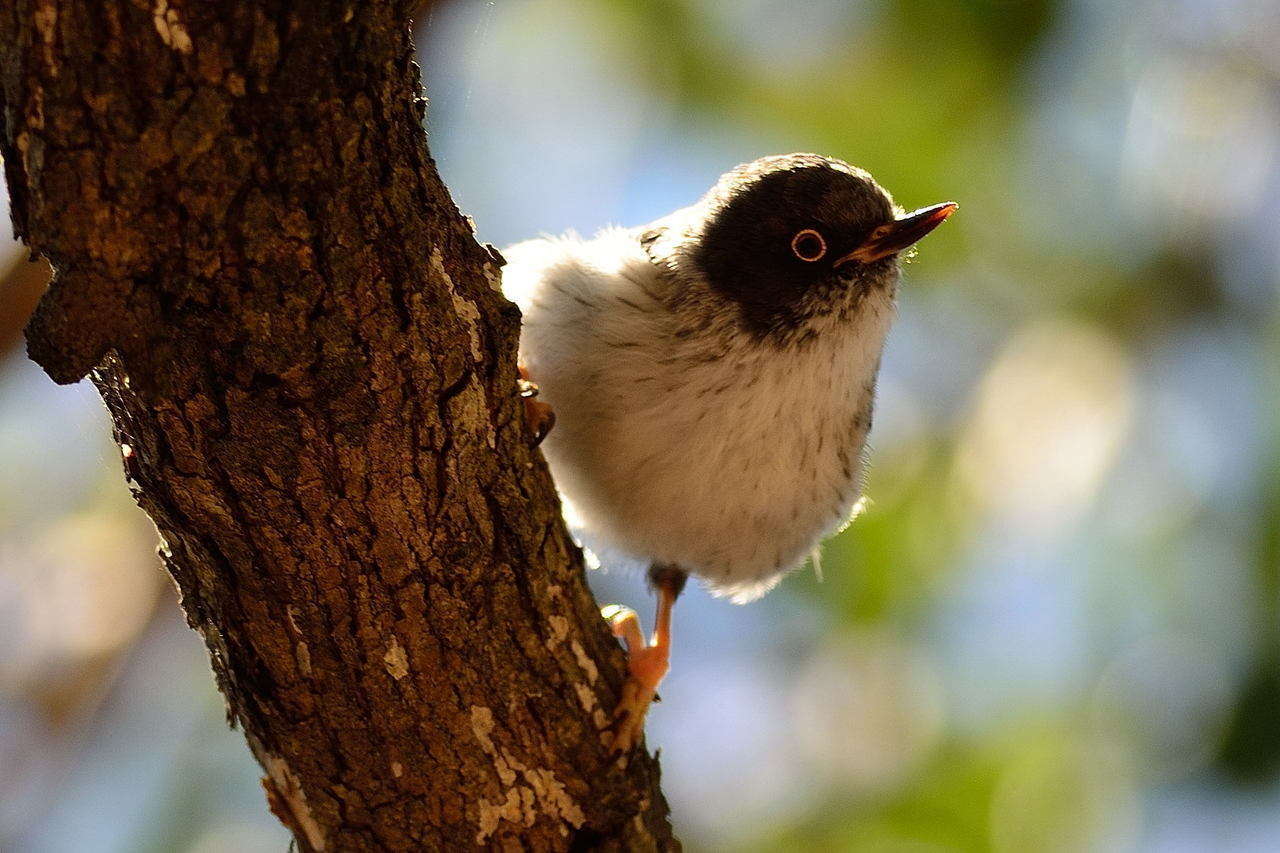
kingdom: Animalia
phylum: Chordata
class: Aves
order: Passeriformes
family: Neosittidae
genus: Daphoenositta
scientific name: Daphoenositta chrysoptera
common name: Varied sittella
